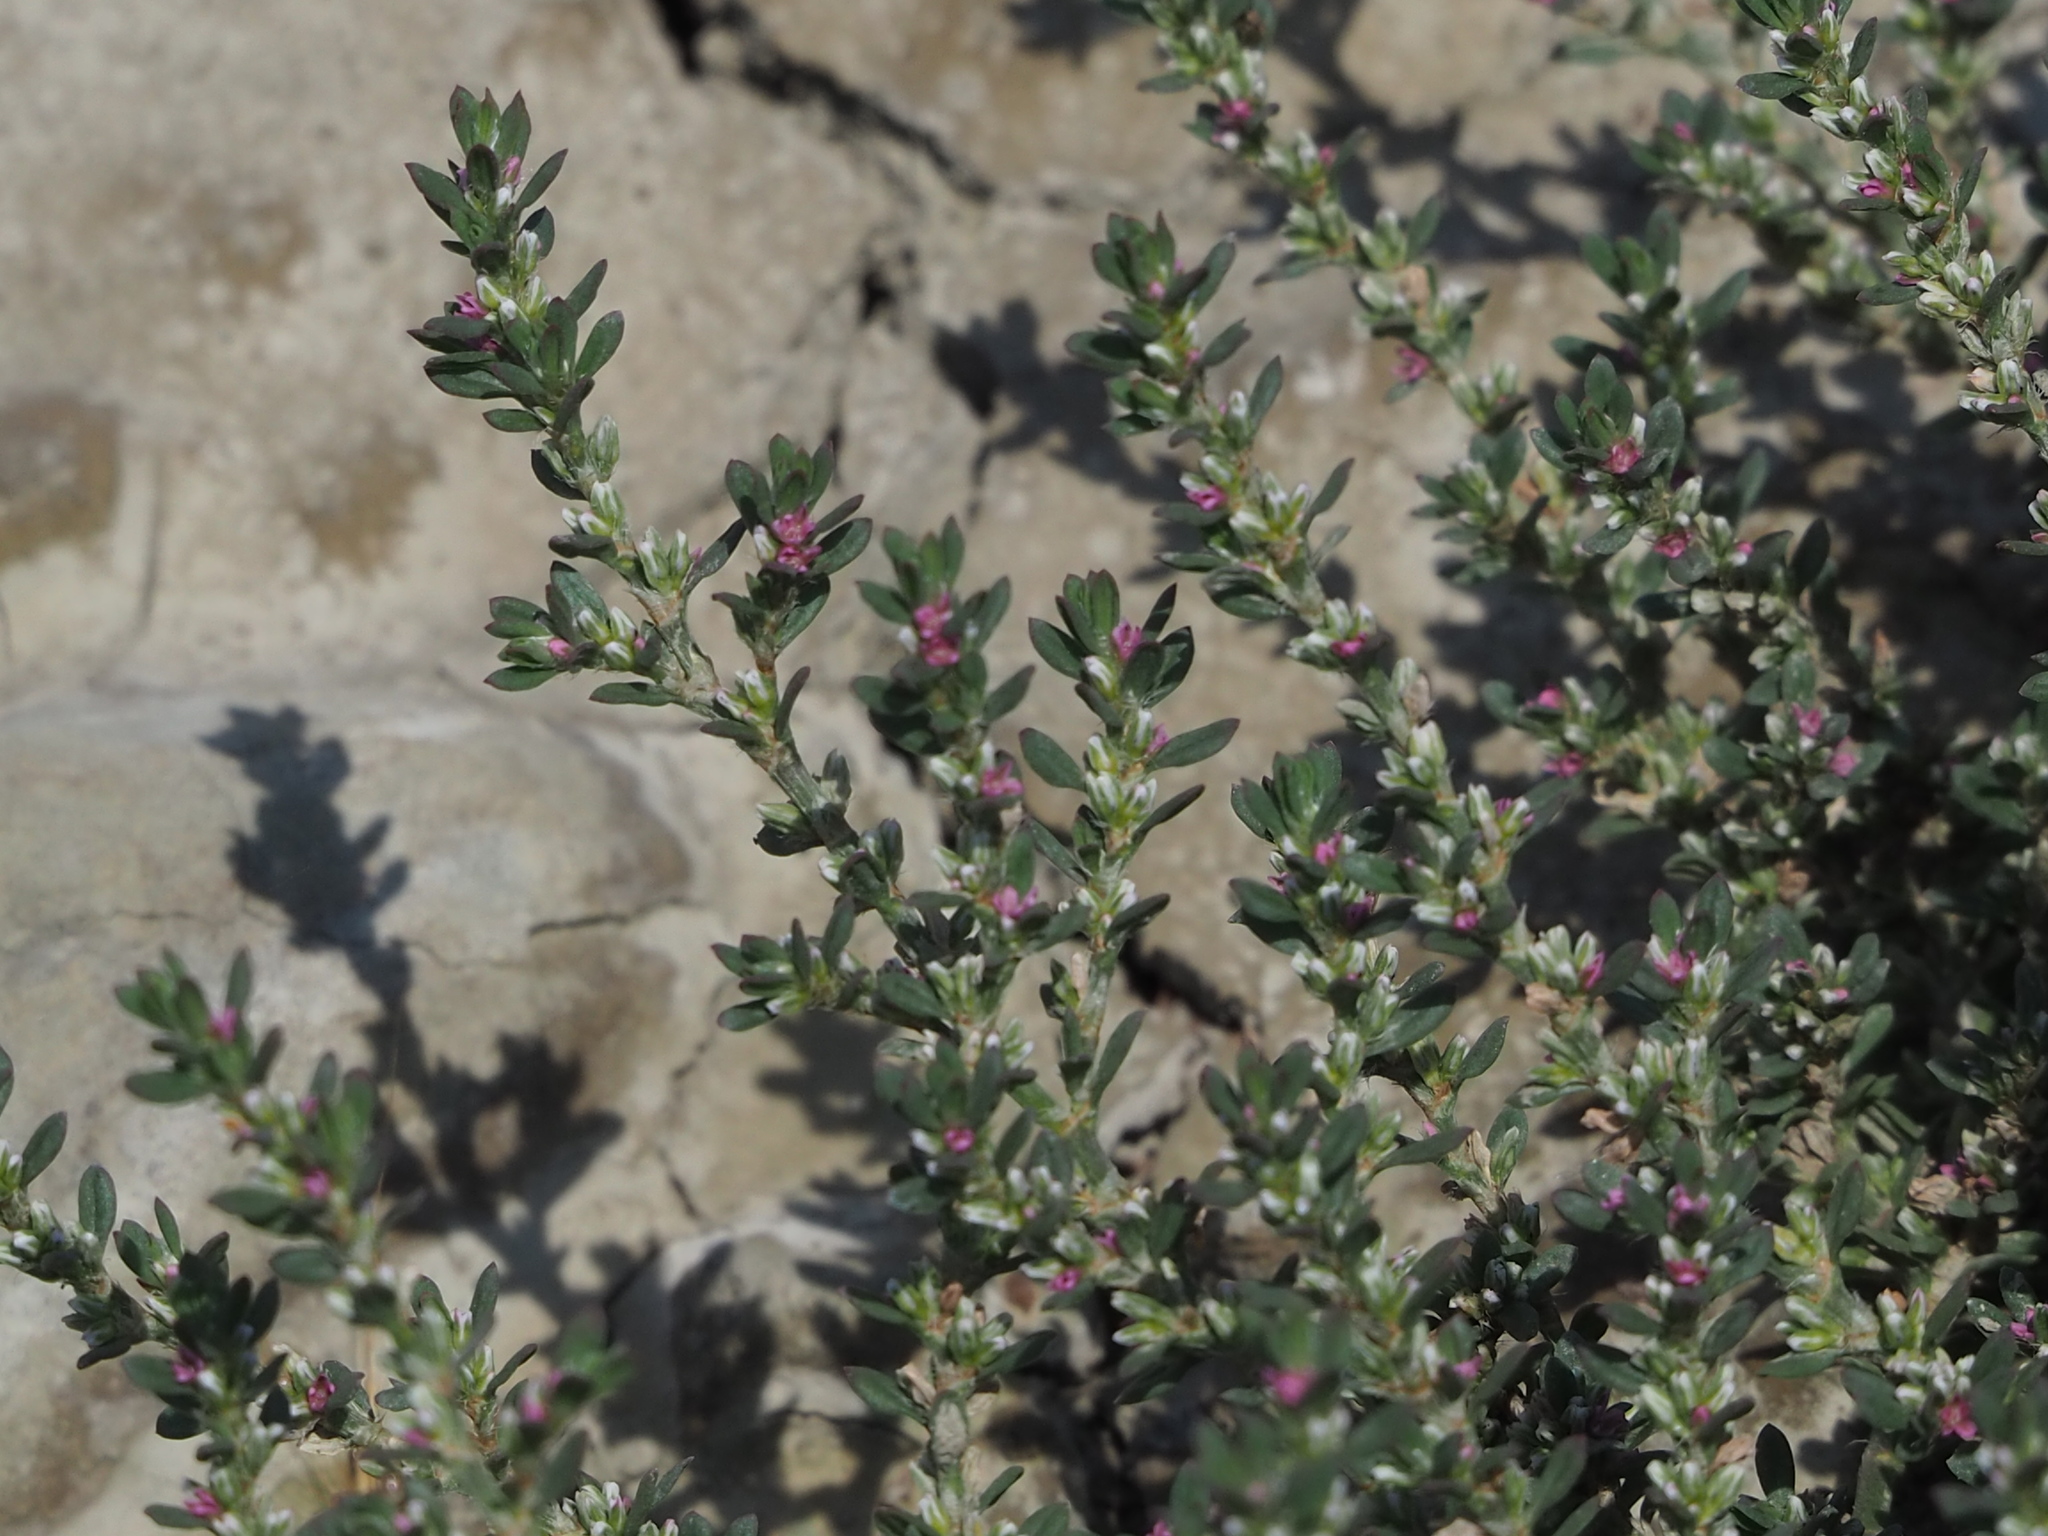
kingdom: Plantae
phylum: Tracheophyta
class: Magnoliopsida
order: Caryophyllales
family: Polygonaceae
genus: Polygonum
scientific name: Polygonum plebeium
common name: Common knotweed
